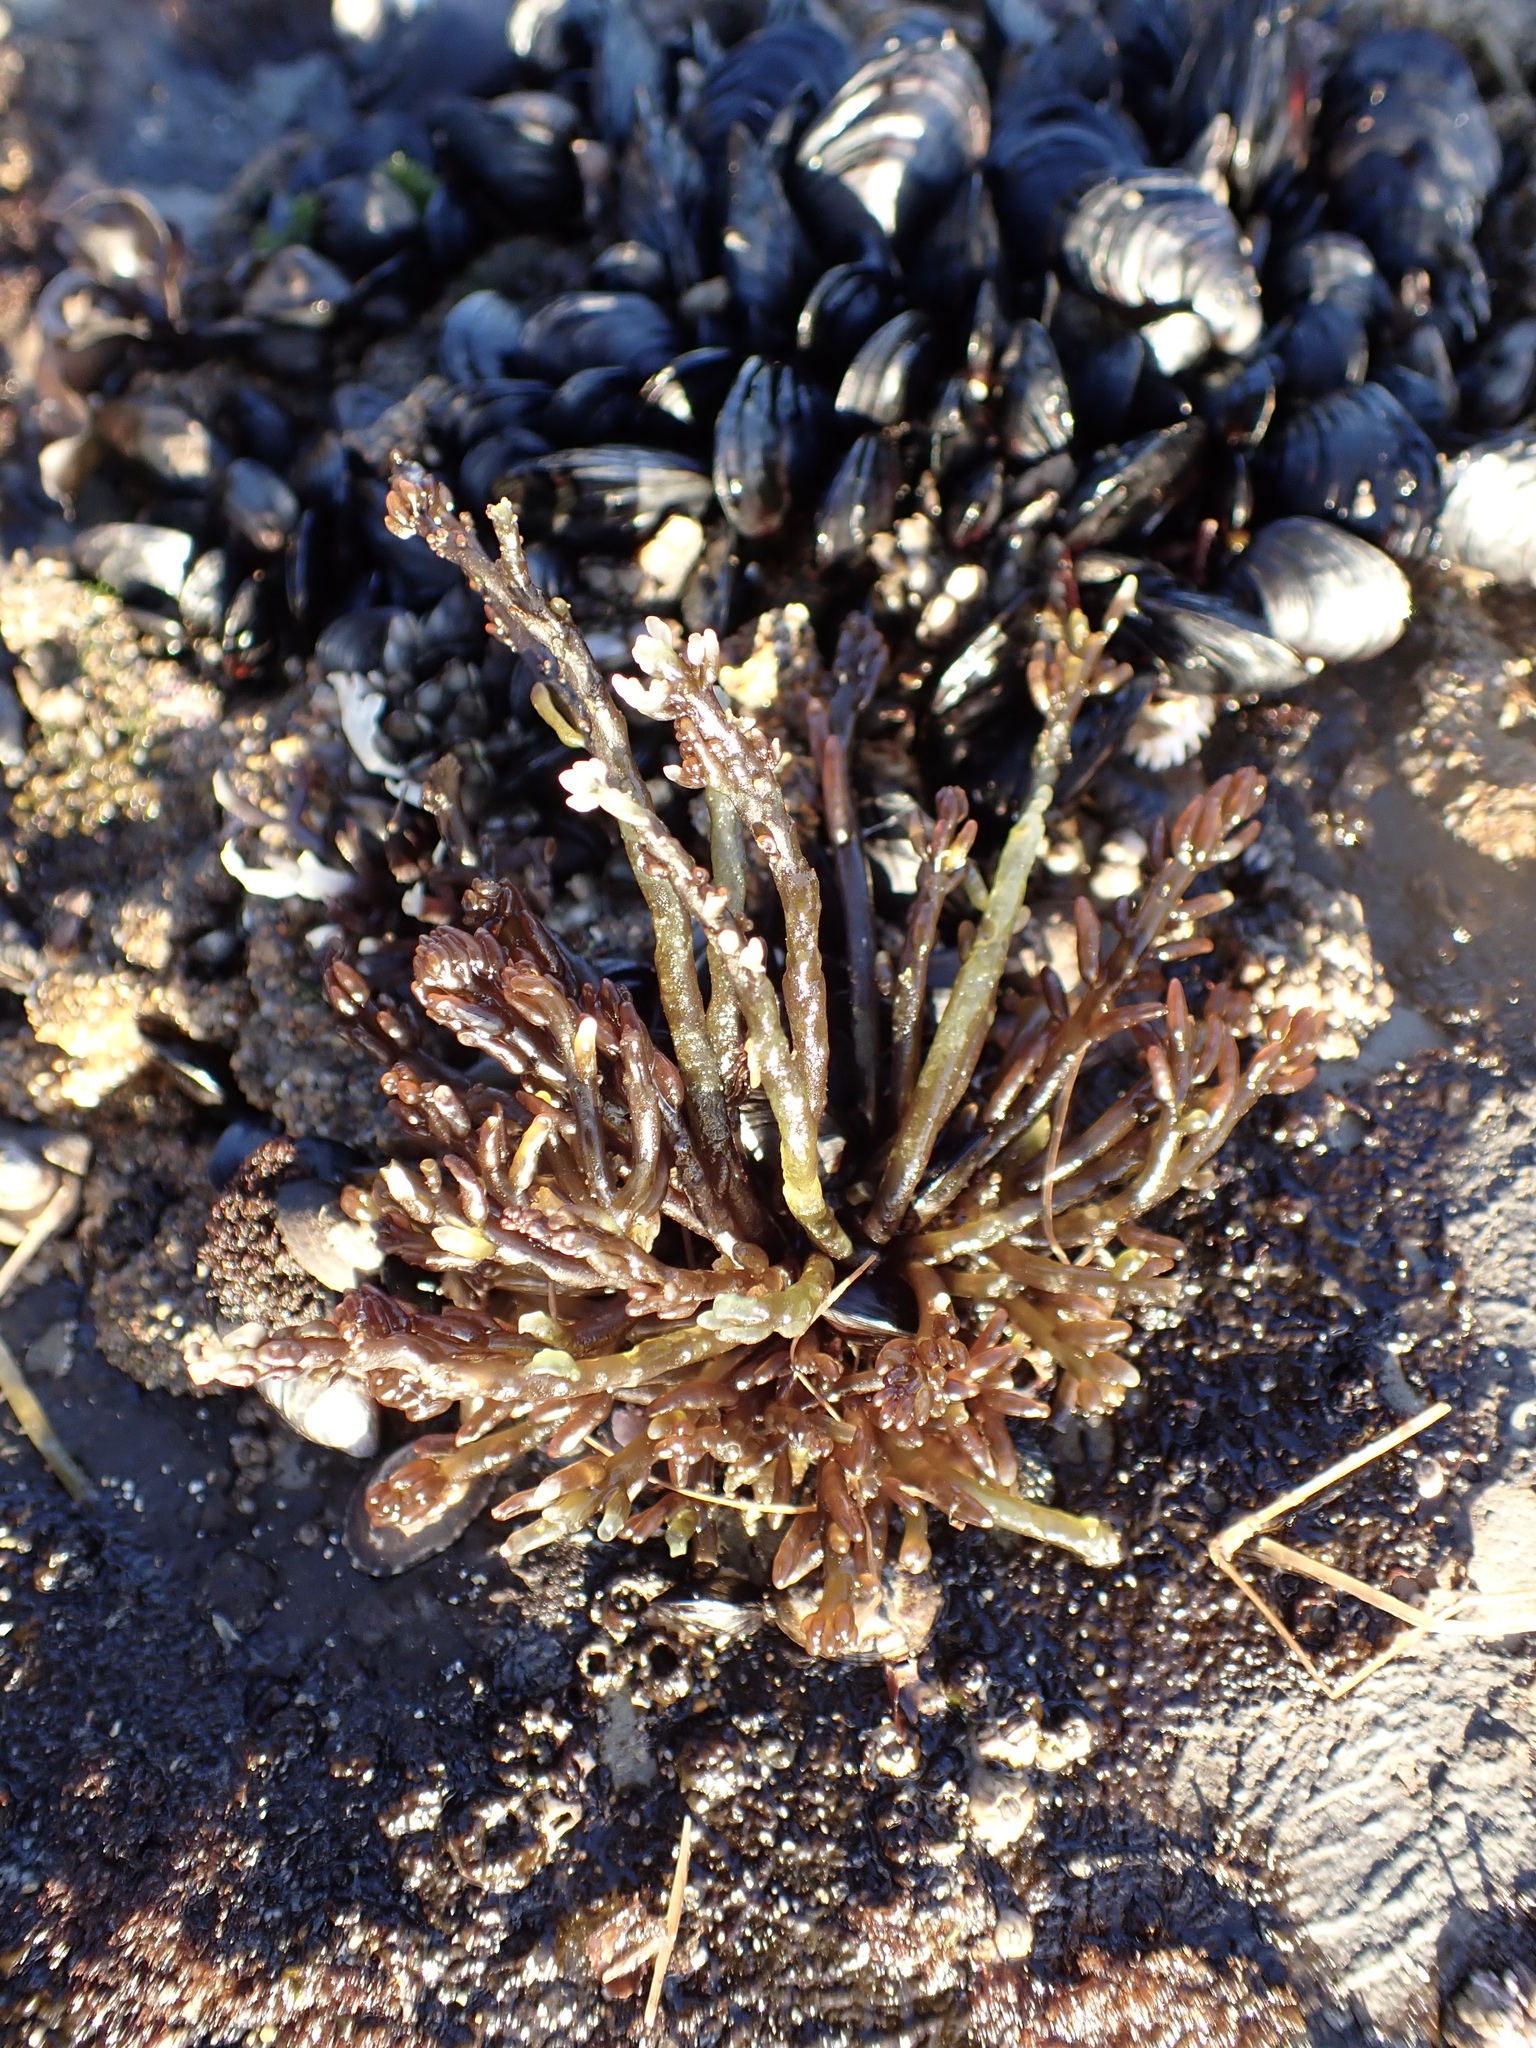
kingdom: Plantae
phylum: Rhodophyta
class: Florideophyceae
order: Rhodymeniales
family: Champiaceae
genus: Neogastroclonium
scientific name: Neogastroclonium subarticulatum
